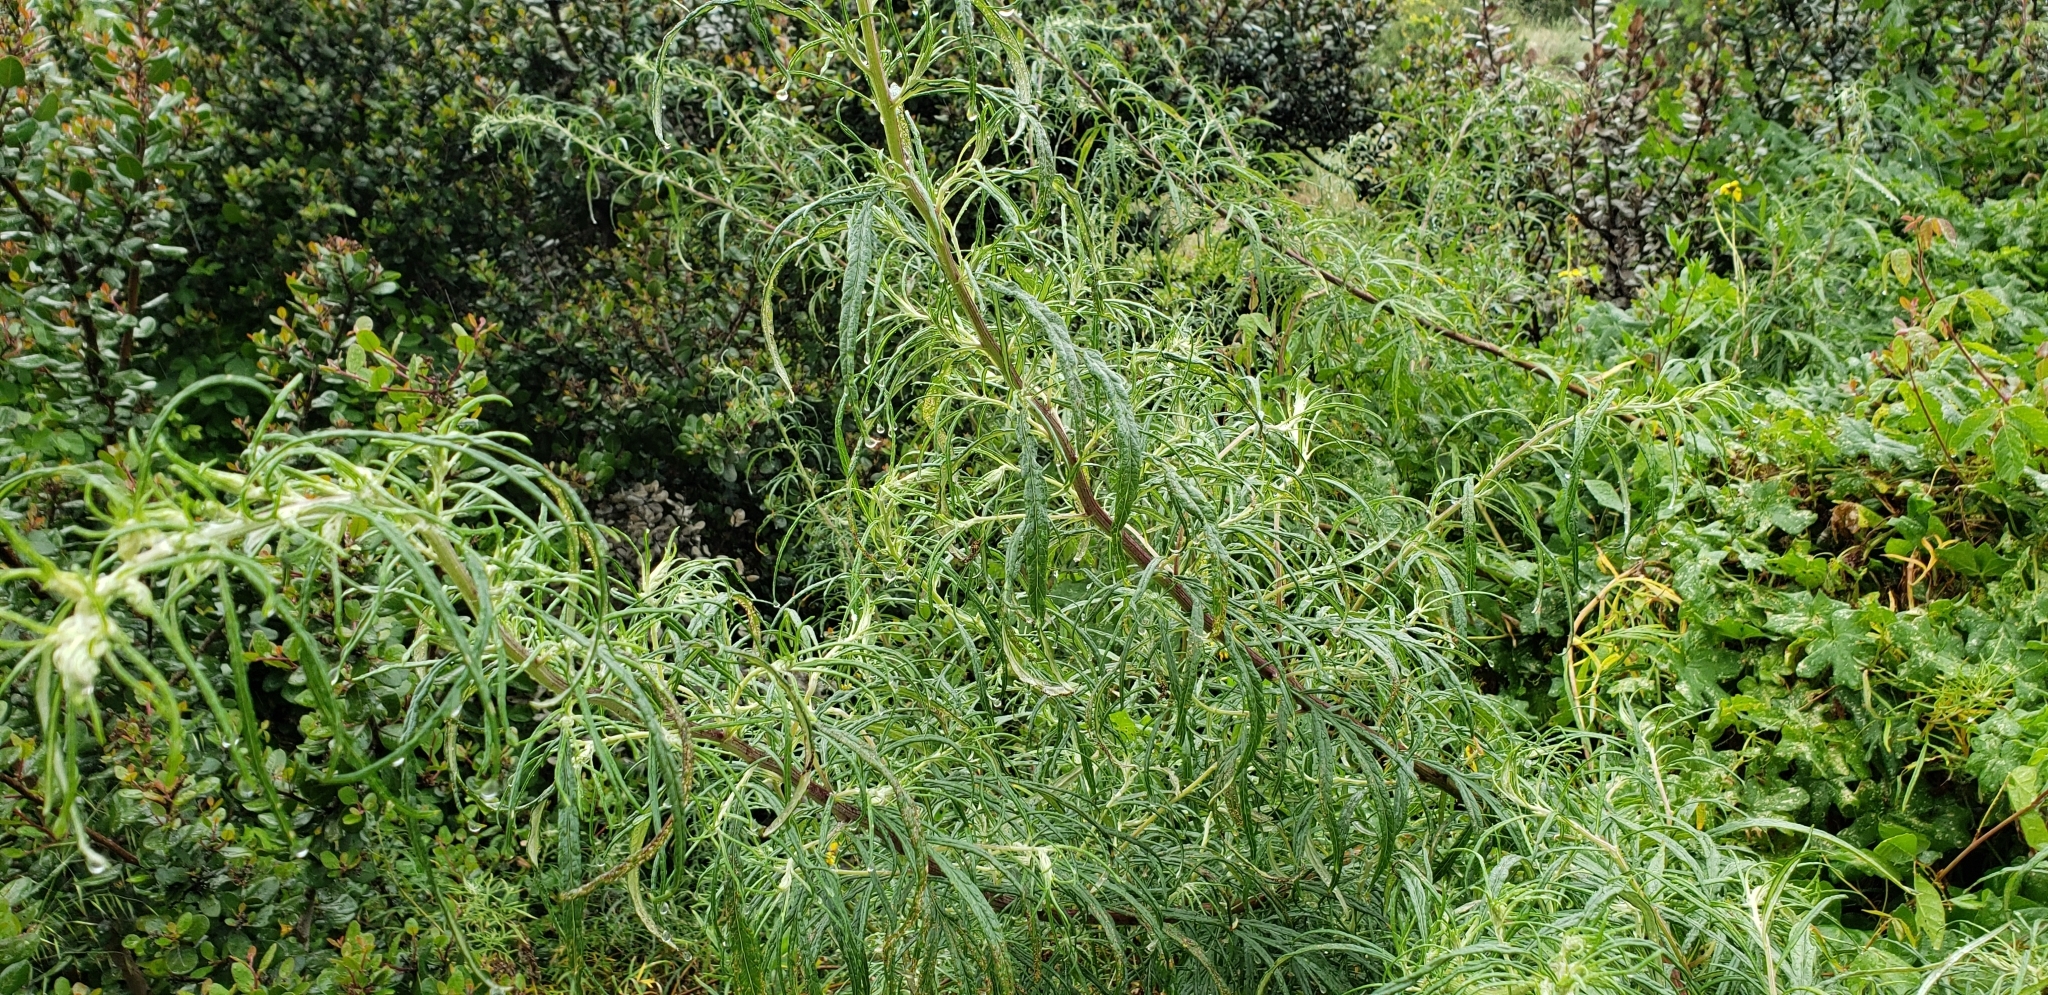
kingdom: Plantae
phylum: Tracheophyta
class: Magnoliopsida
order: Asterales
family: Asteraceae
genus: Artemisia
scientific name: Artemisia palmeri
